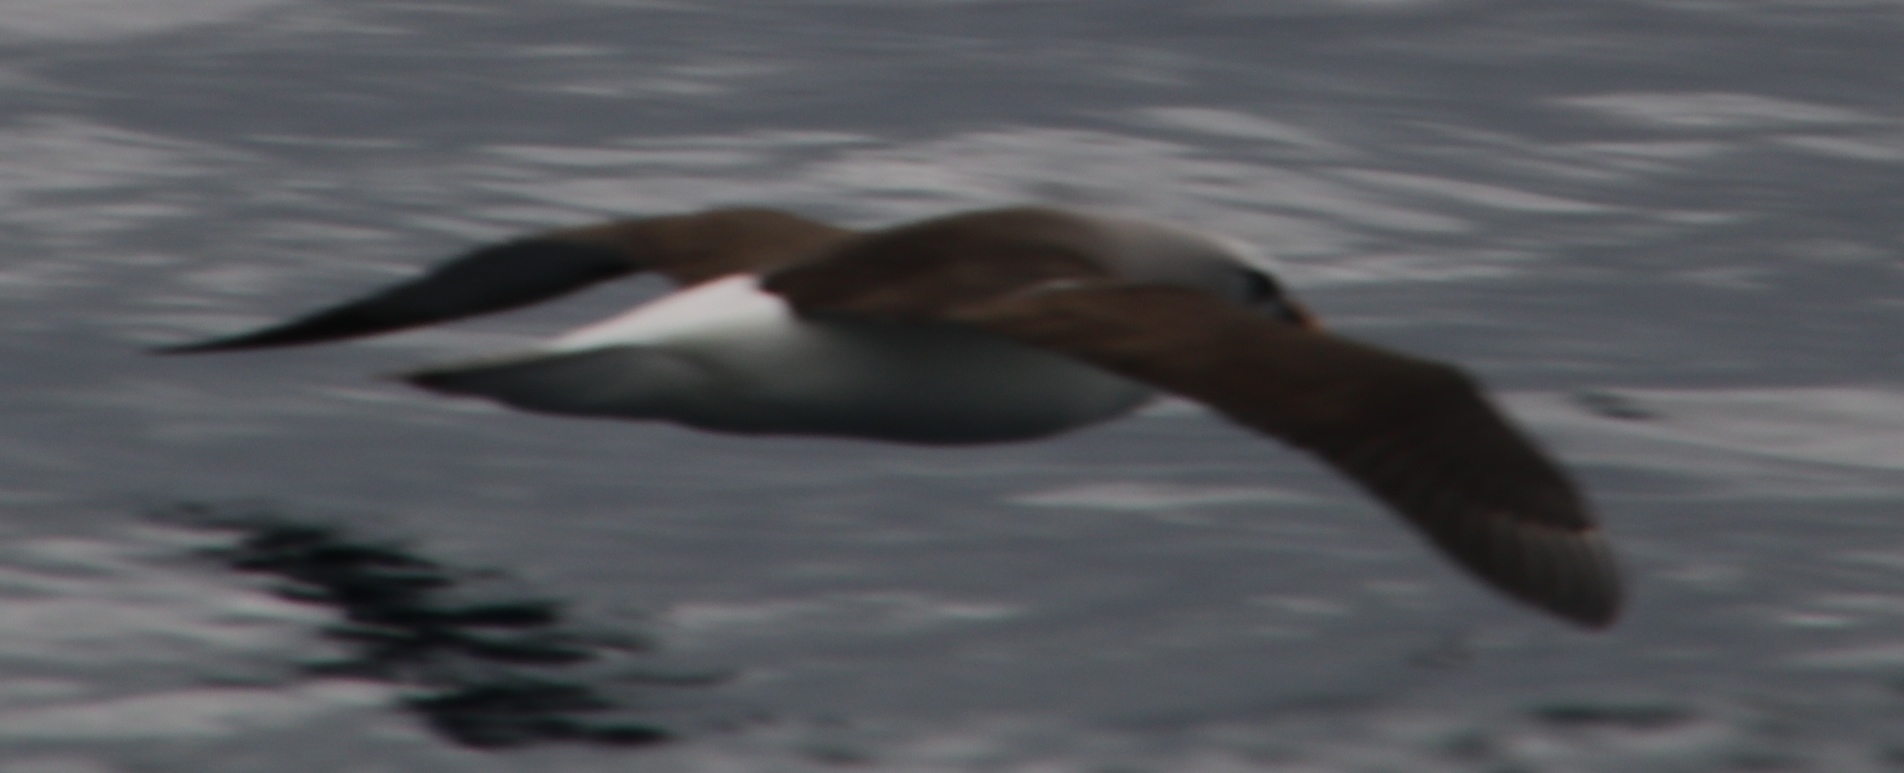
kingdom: Animalia
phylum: Chordata
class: Aves
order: Procellariiformes
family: Diomedeidae
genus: Thalassarche
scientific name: Thalassarche chlororhynchos
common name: Atlantic yellow-nosed albatross
